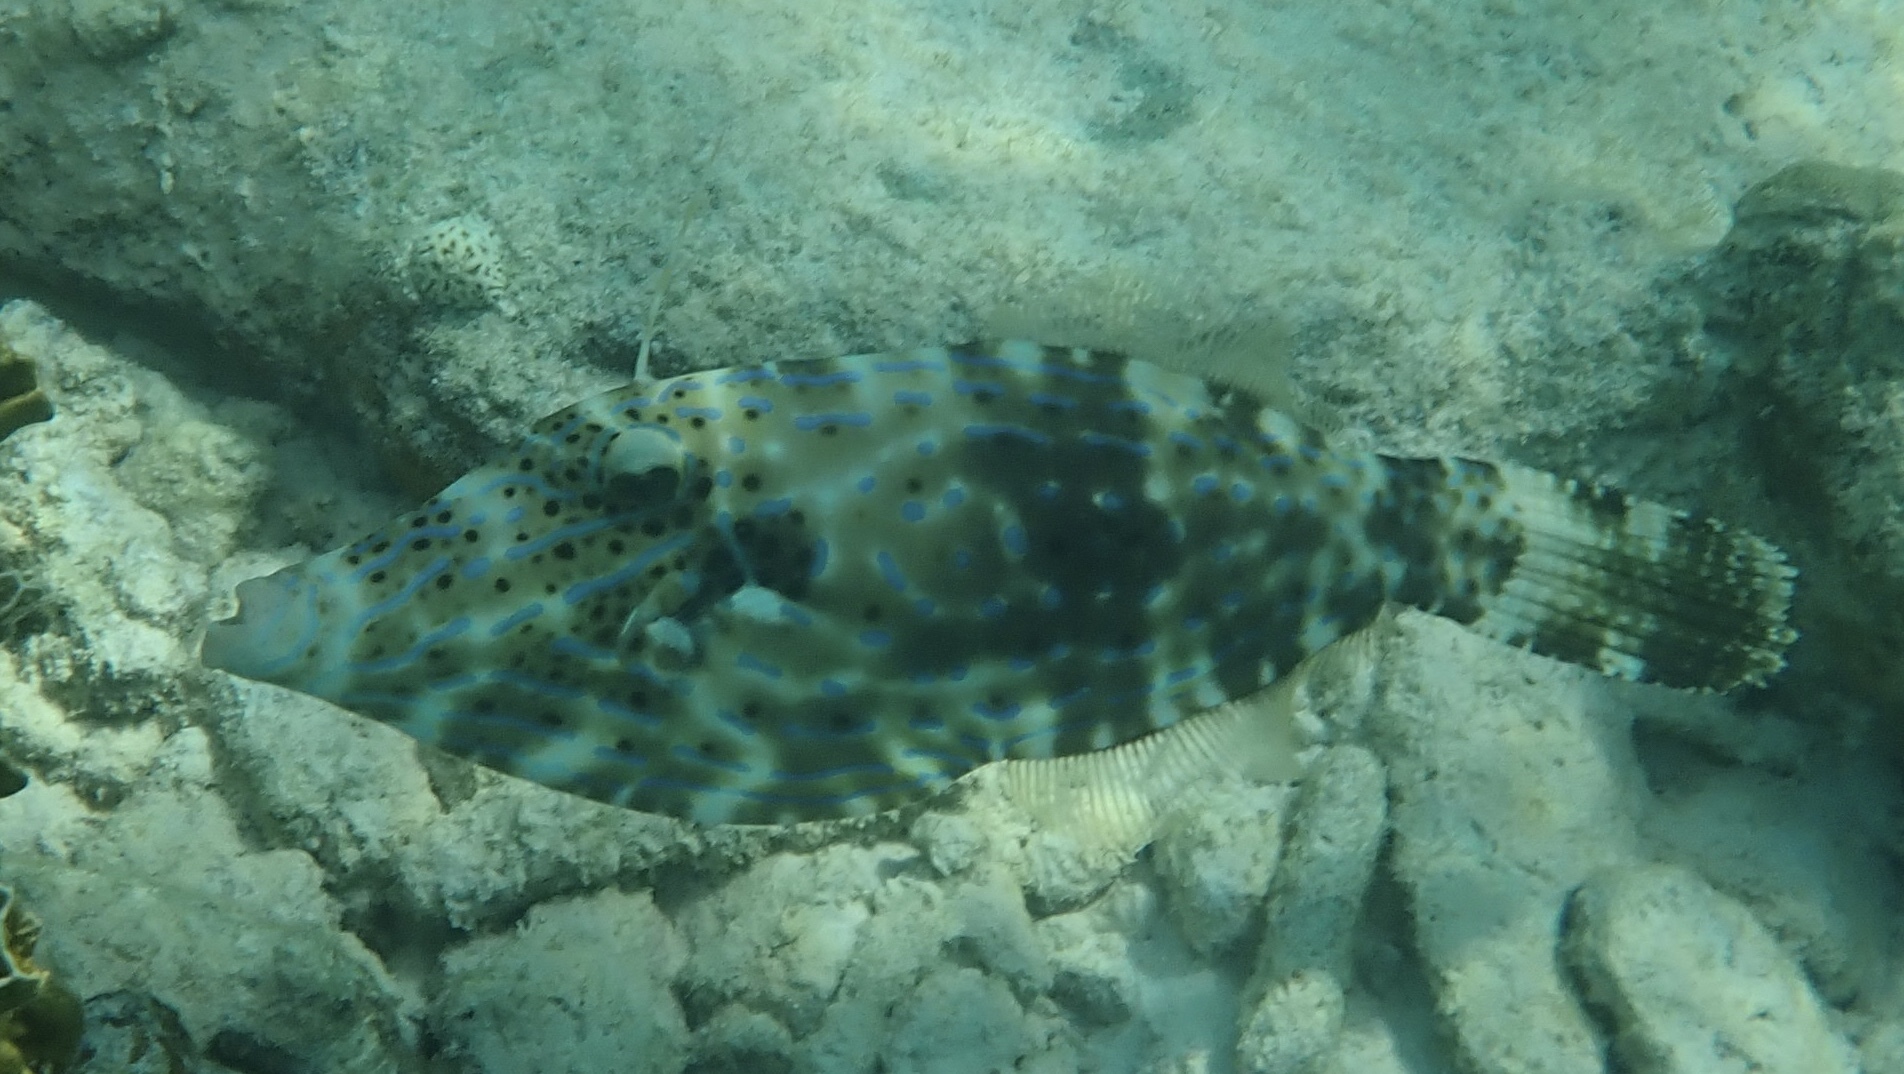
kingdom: Animalia
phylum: Chordata
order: Tetraodontiformes
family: Monacanthidae
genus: Aluterus
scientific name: Aluterus scriptus
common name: Scribbled leatherjacket filefish
